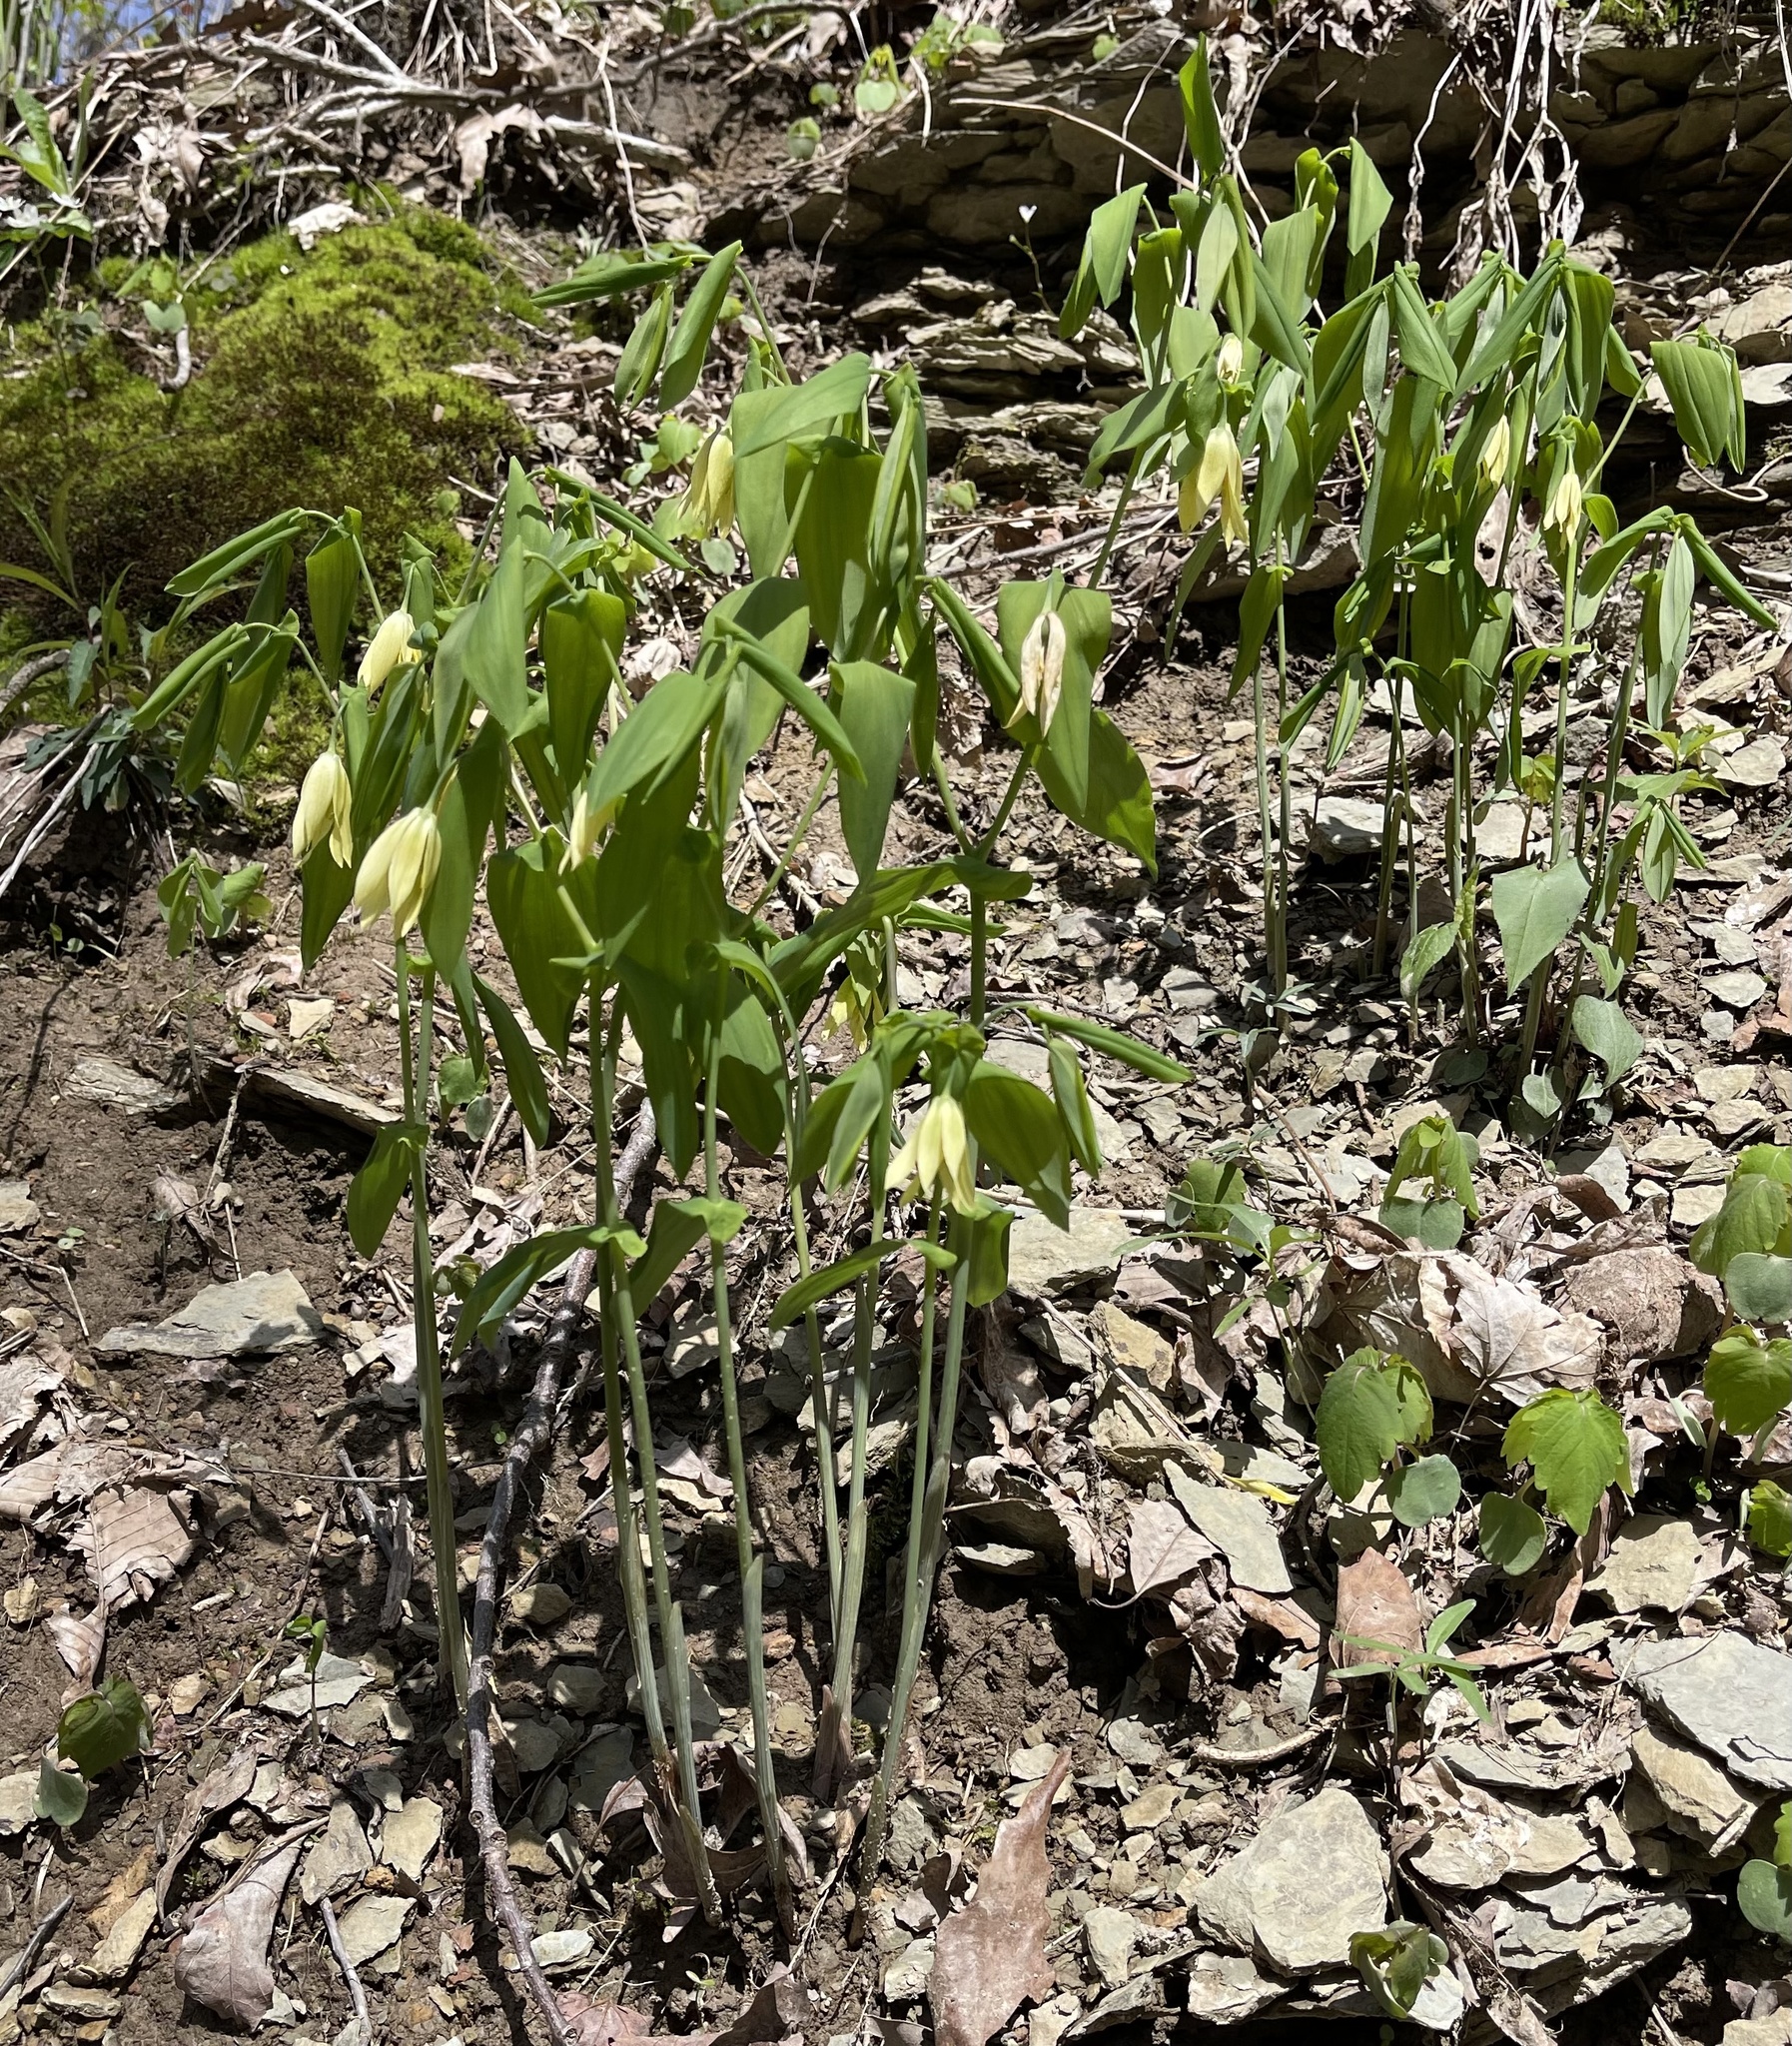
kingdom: Plantae
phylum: Tracheophyta
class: Liliopsida
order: Liliales
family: Colchicaceae
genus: Uvularia
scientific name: Uvularia grandiflora
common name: Bellwort
